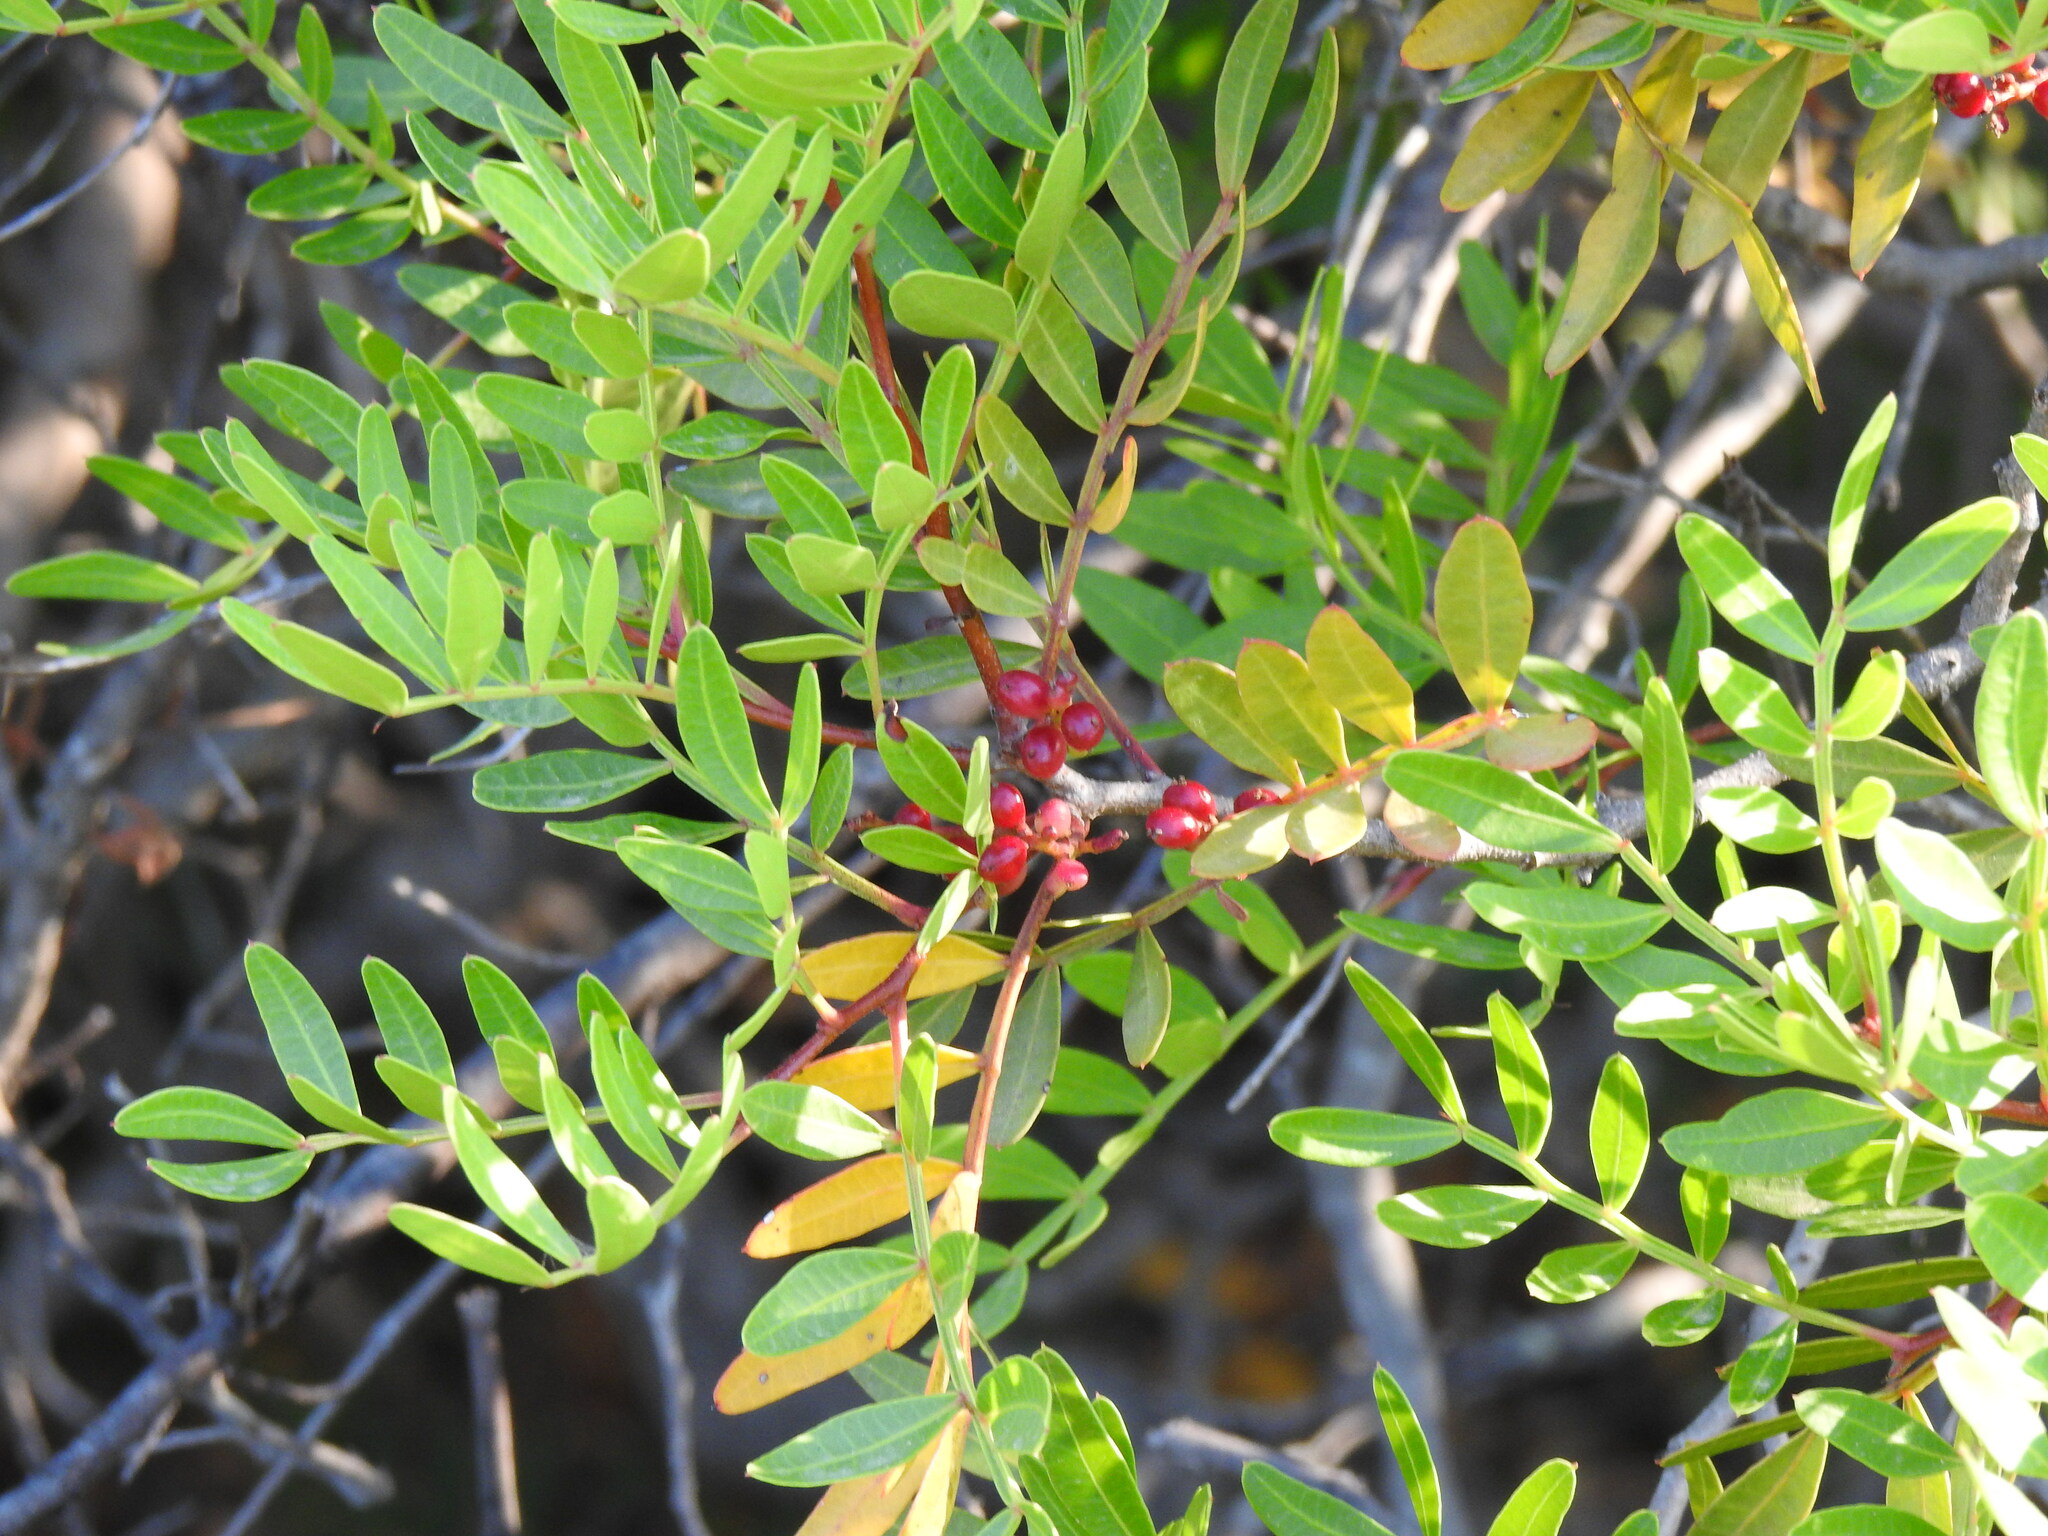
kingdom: Plantae
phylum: Tracheophyta
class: Magnoliopsida
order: Sapindales
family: Anacardiaceae
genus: Pistacia
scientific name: Pistacia lentiscus
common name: Lentisk
